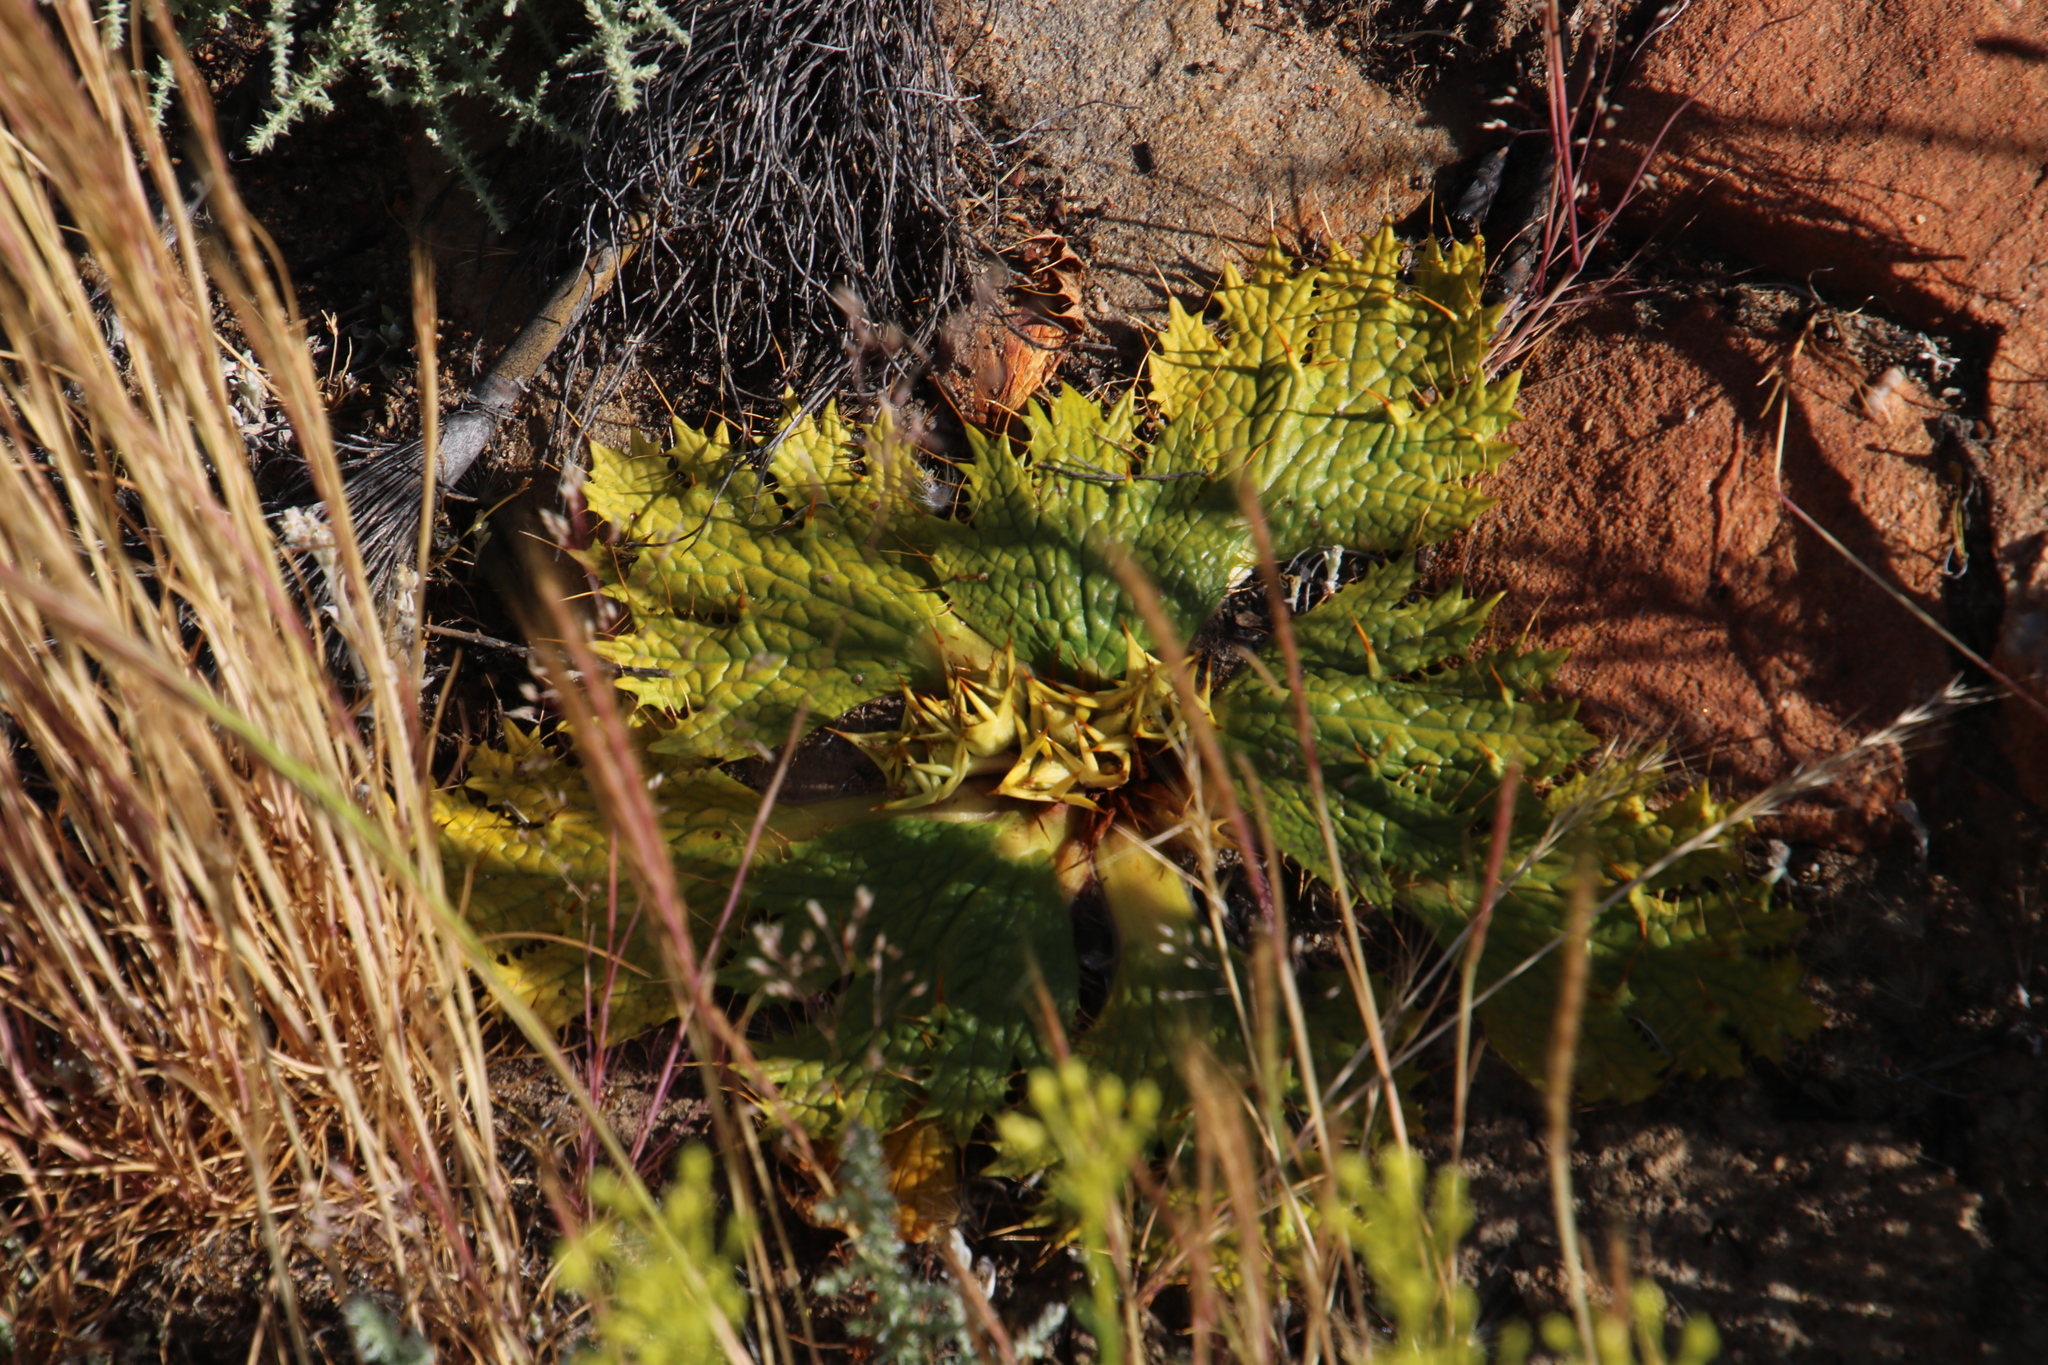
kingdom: Plantae
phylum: Tracheophyta
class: Magnoliopsida
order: Apiales
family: Apiaceae
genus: Arctopus
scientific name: Arctopus echinatus
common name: Platdoring
